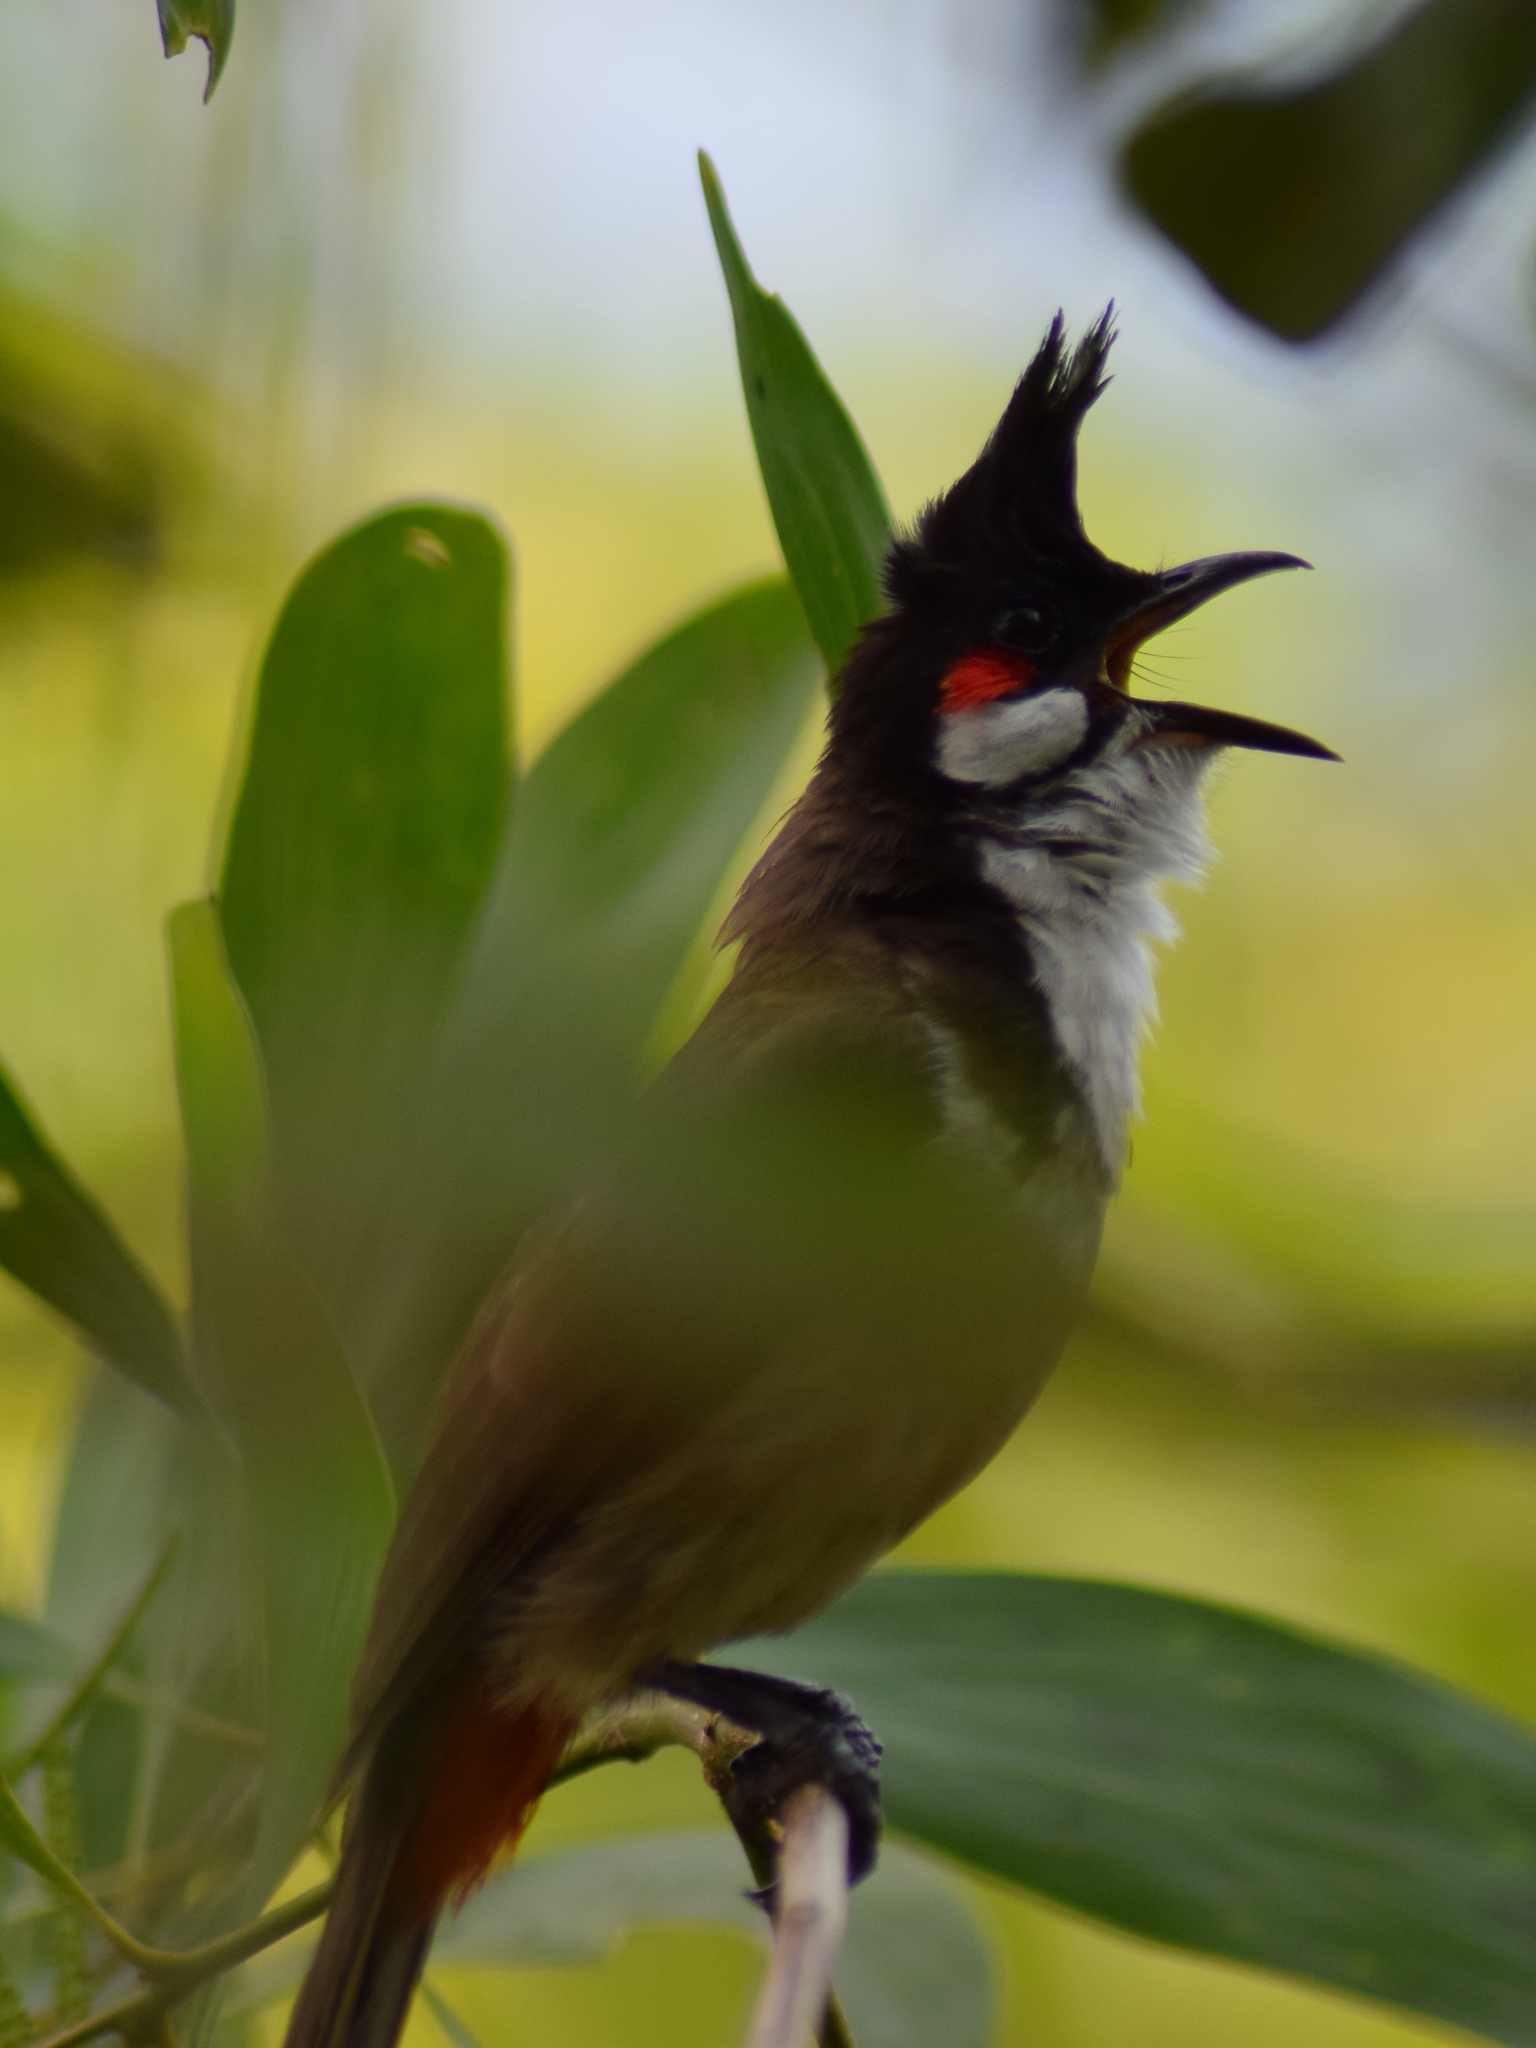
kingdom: Animalia
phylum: Chordata
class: Aves
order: Passeriformes
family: Pycnonotidae
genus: Pycnonotus
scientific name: Pycnonotus jocosus
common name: Red-whiskered bulbul
